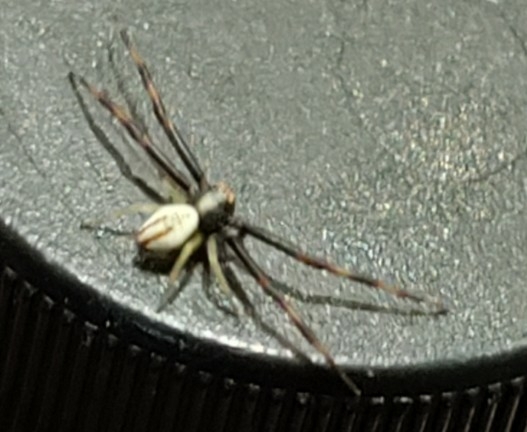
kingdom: Animalia
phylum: Arthropoda
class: Arachnida
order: Araneae
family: Thomisidae
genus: Misumena
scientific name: Misumena vatia
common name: Goldenrod crab spider
